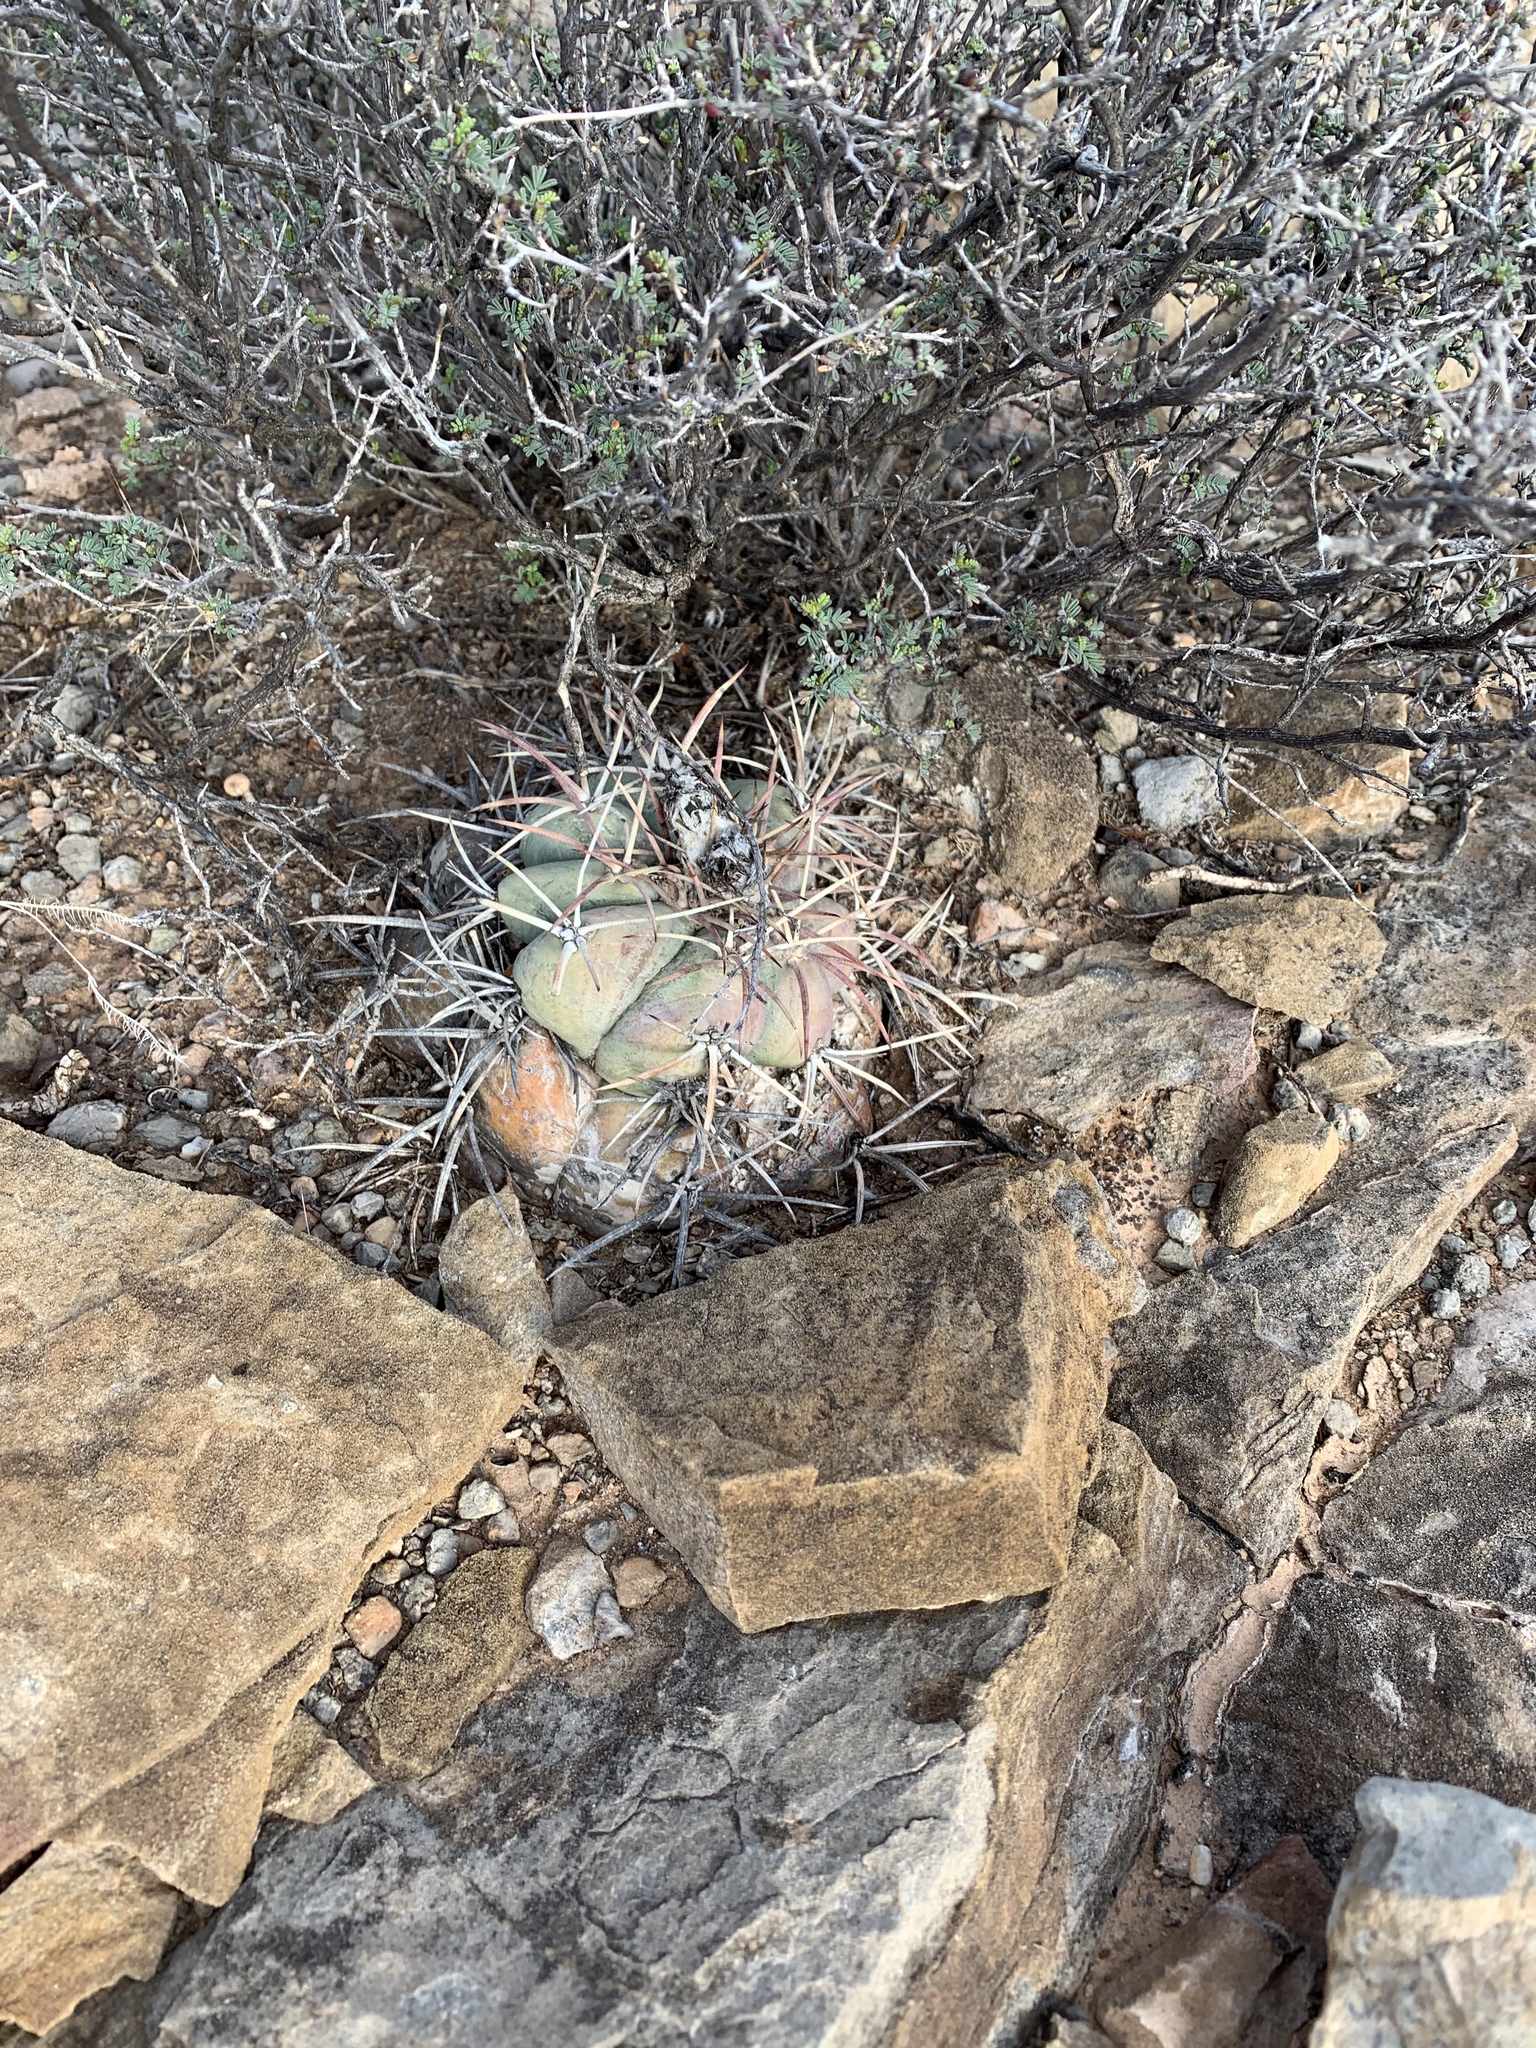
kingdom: Plantae
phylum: Tracheophyta
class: Magnoliopsida
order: Caryophyllales
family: Cactaceae
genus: Echinocactus
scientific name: Echinocactus horizonthalonius
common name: Devilshead
